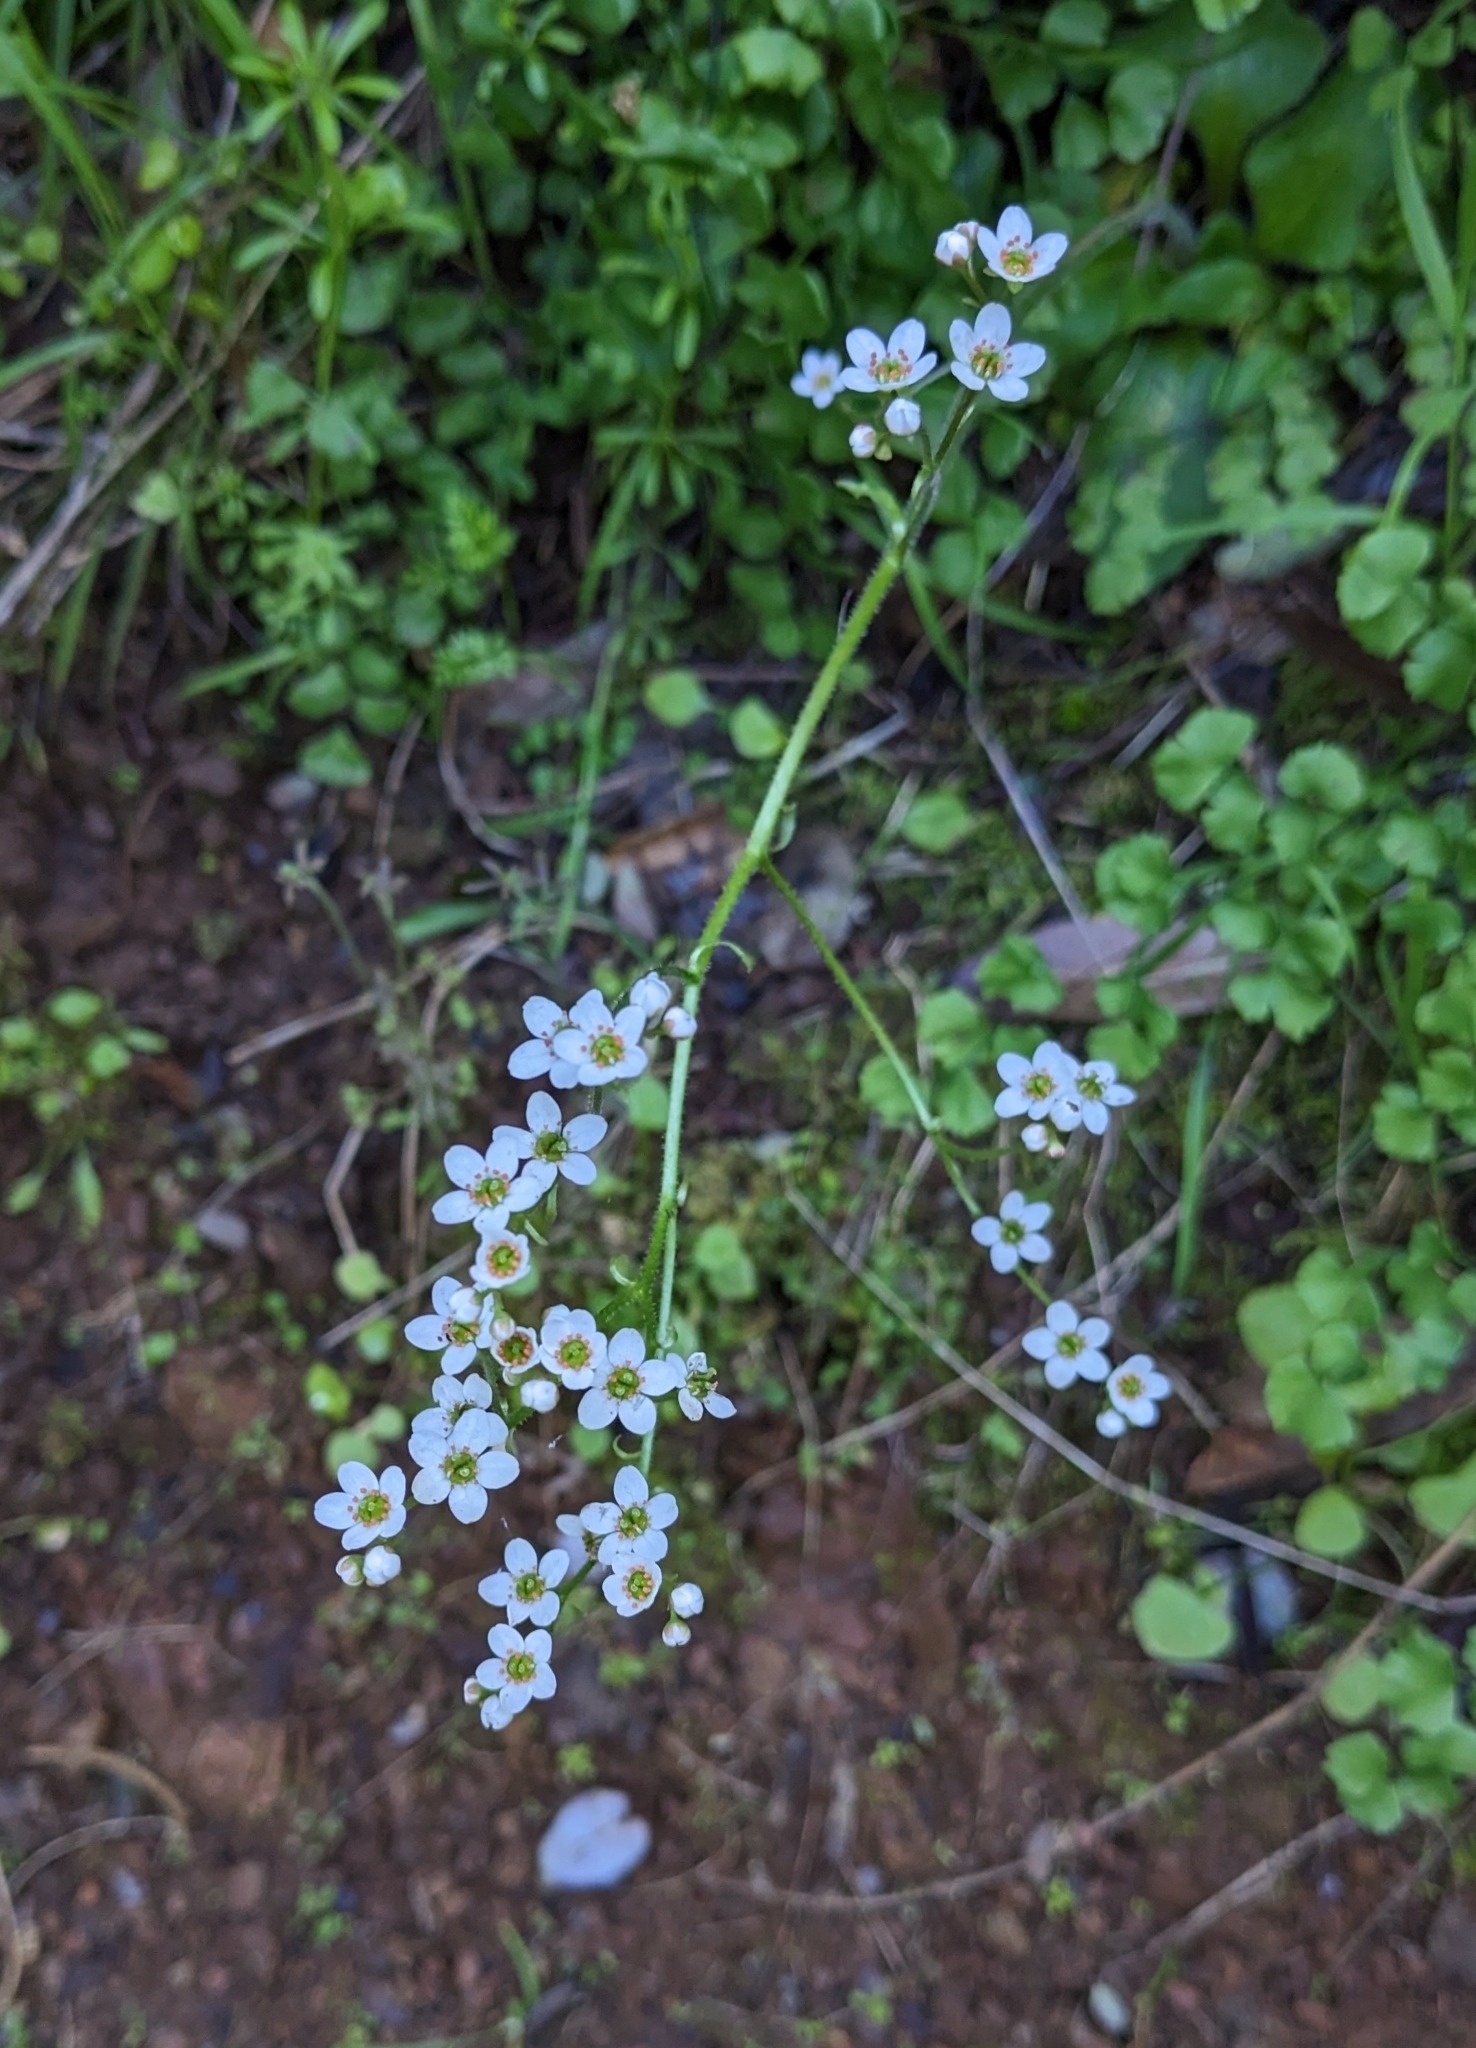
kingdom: Plantae
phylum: Tracheophyta
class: Magnoliopsida
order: Saxifragales
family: Saxifragaceae
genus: Micranthes
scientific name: Micranthes californica
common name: California saxifrage
